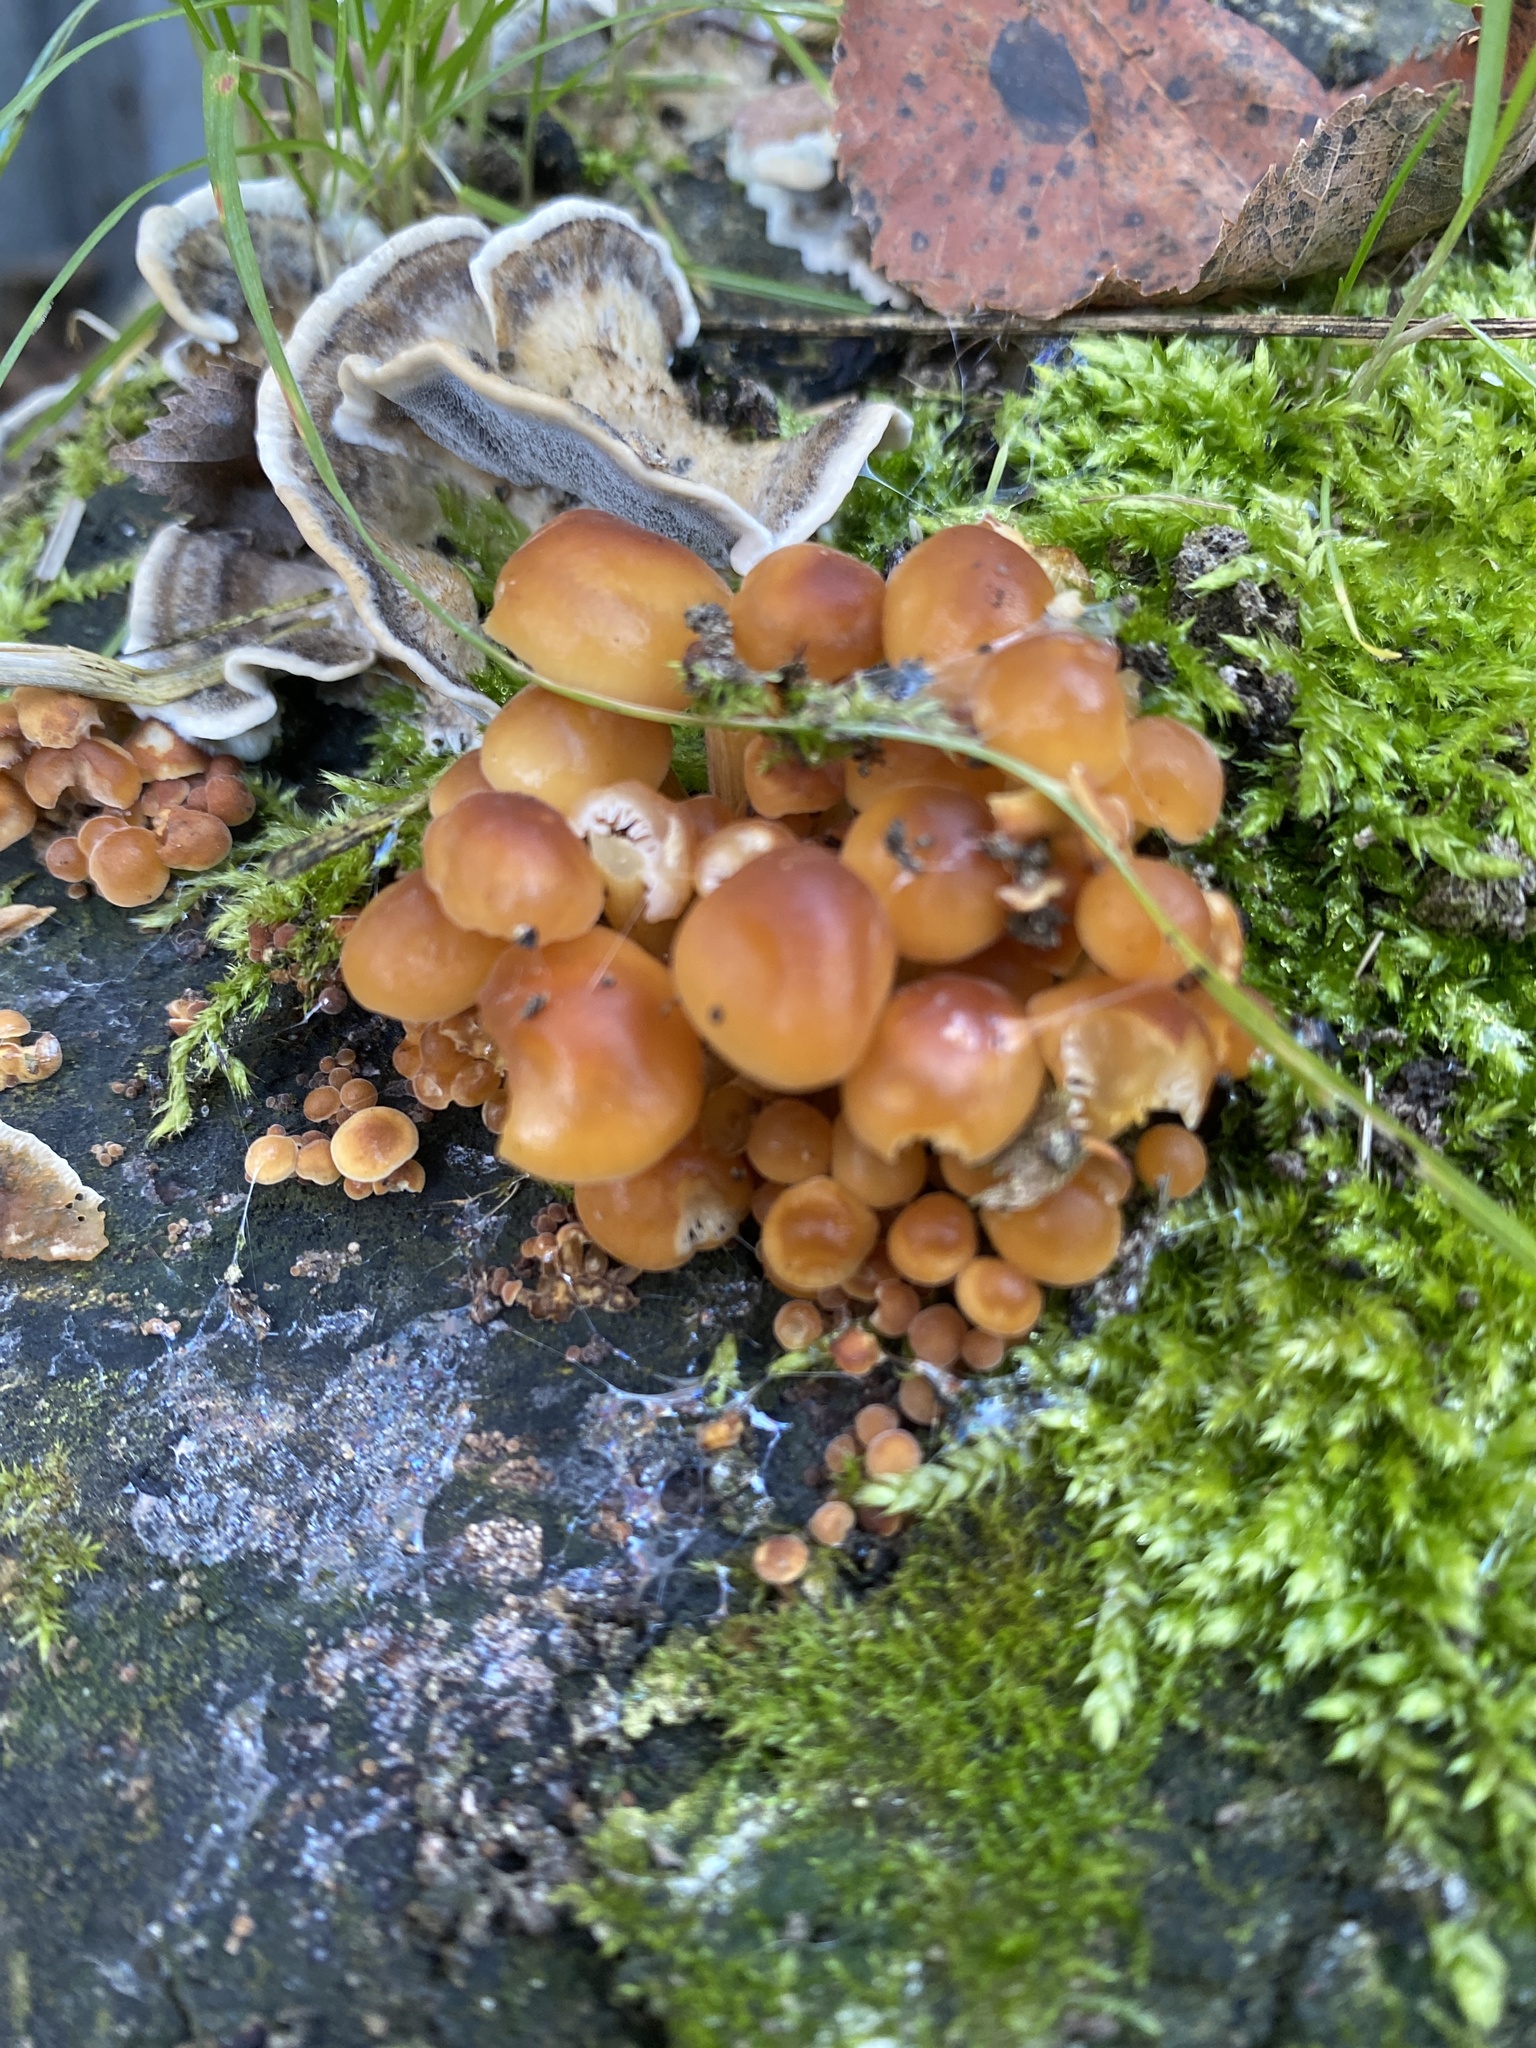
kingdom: Fungi
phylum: Basidiomycota
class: Agaricomycetes
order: Agaricales
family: Physalacriaceae
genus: Flammulina
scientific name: Flammulina
